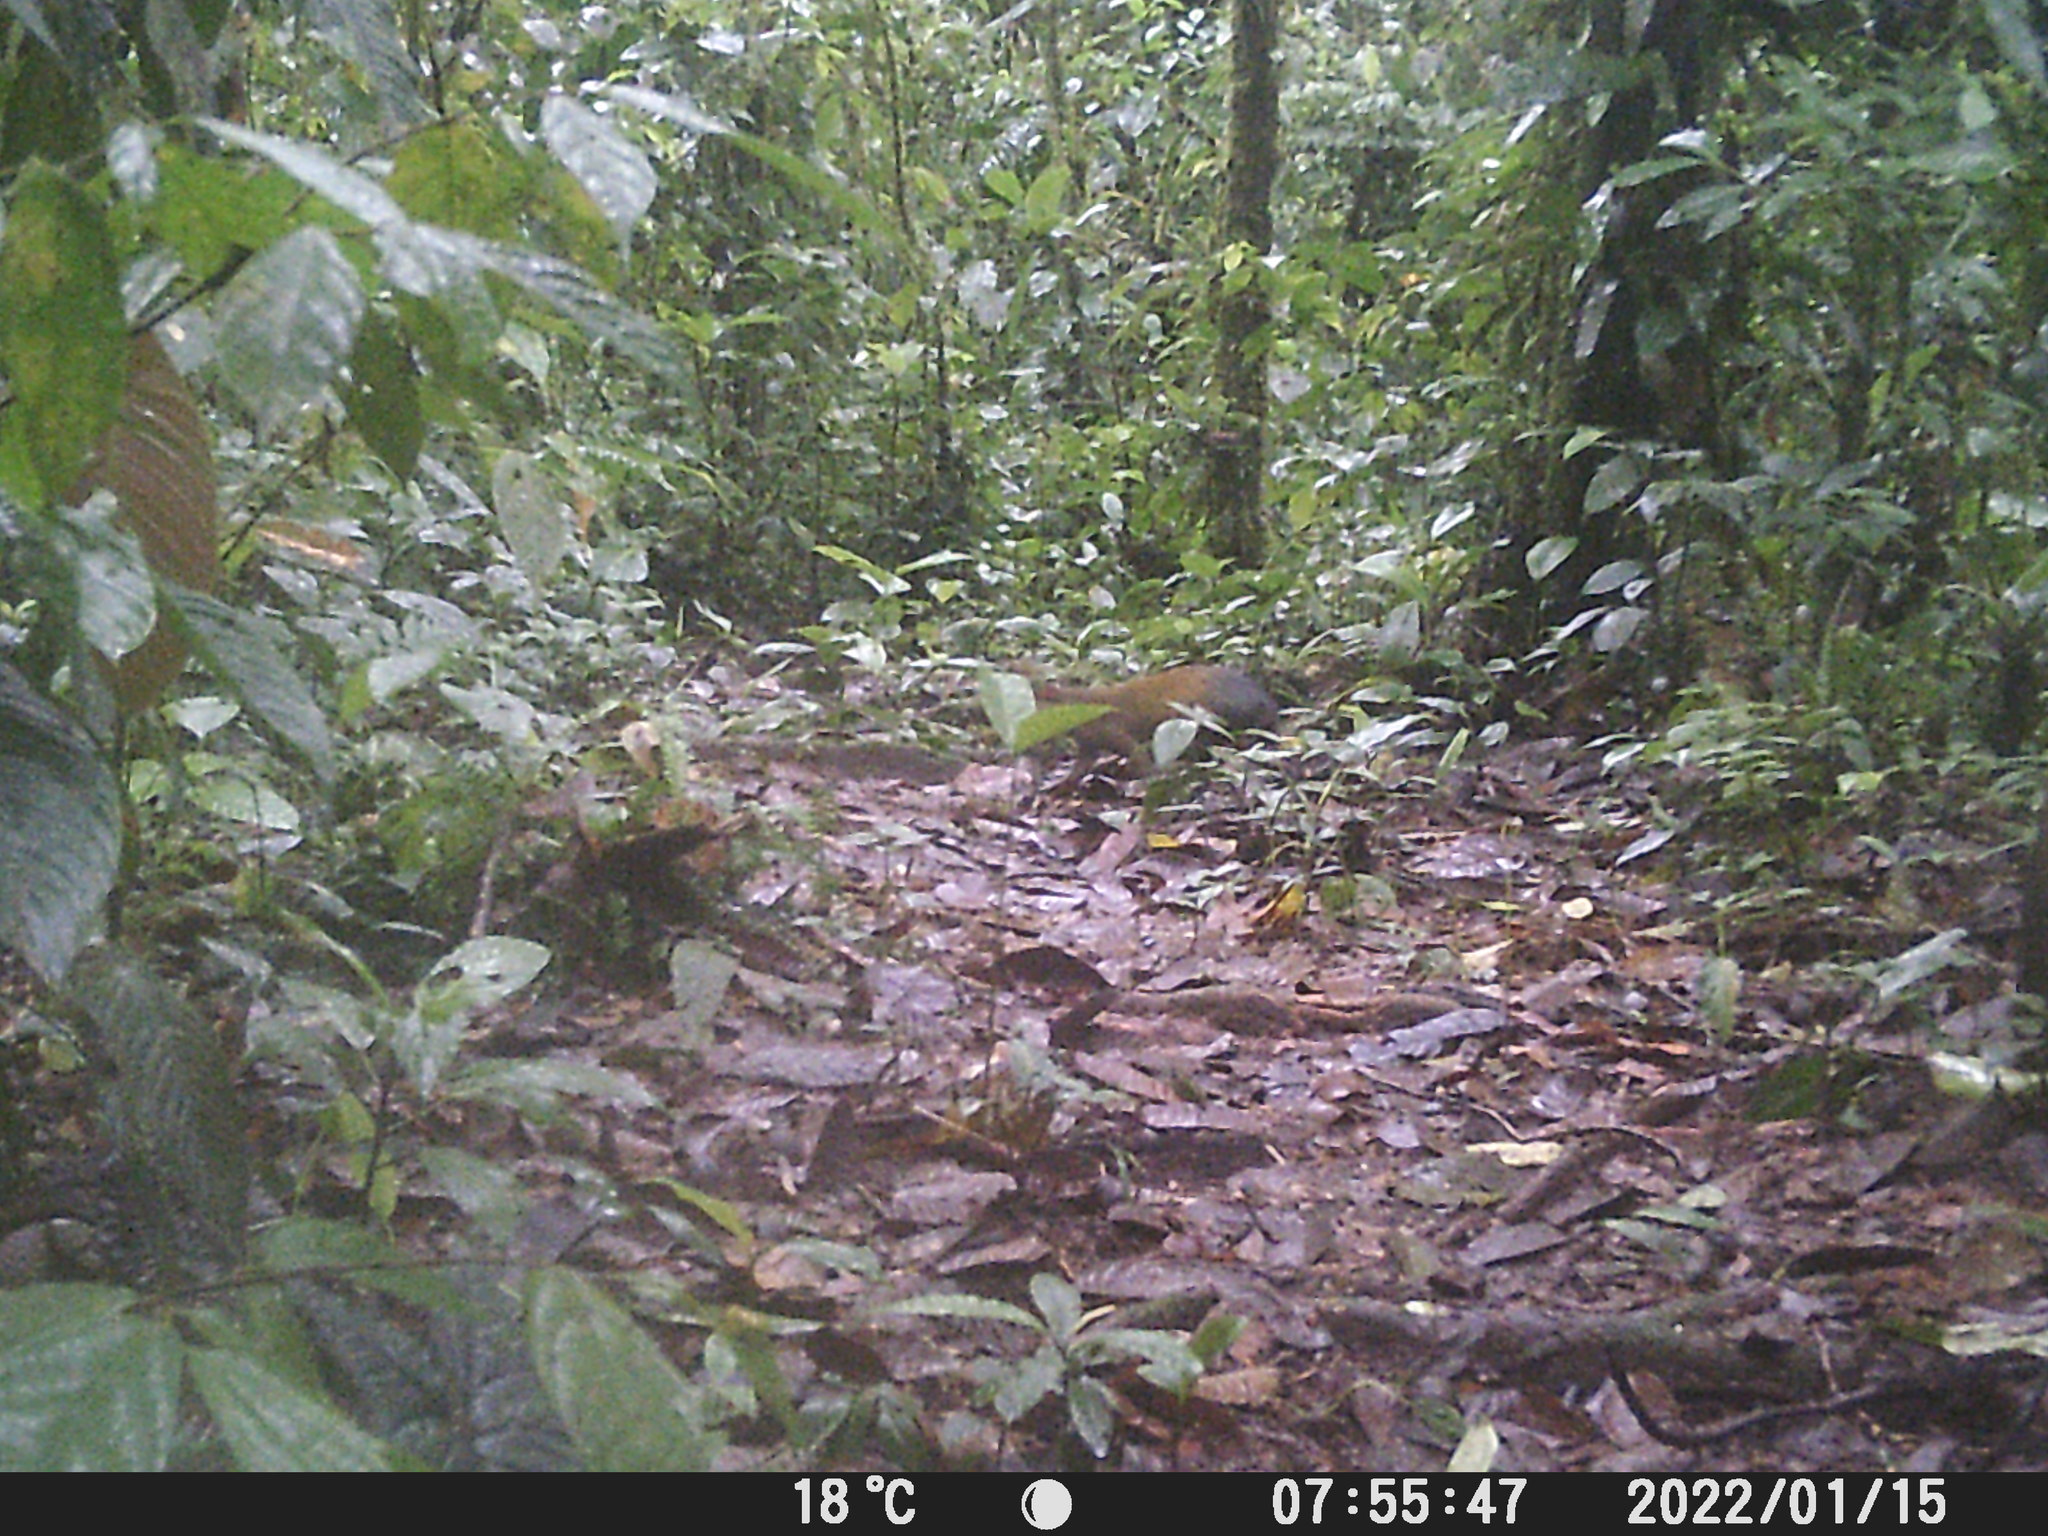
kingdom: Animalia
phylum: Chordata
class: Mammalia
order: Rodentia
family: Dasyproctidae
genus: Dasyprocta
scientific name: Dasyprocta punctata
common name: Central american agouti
